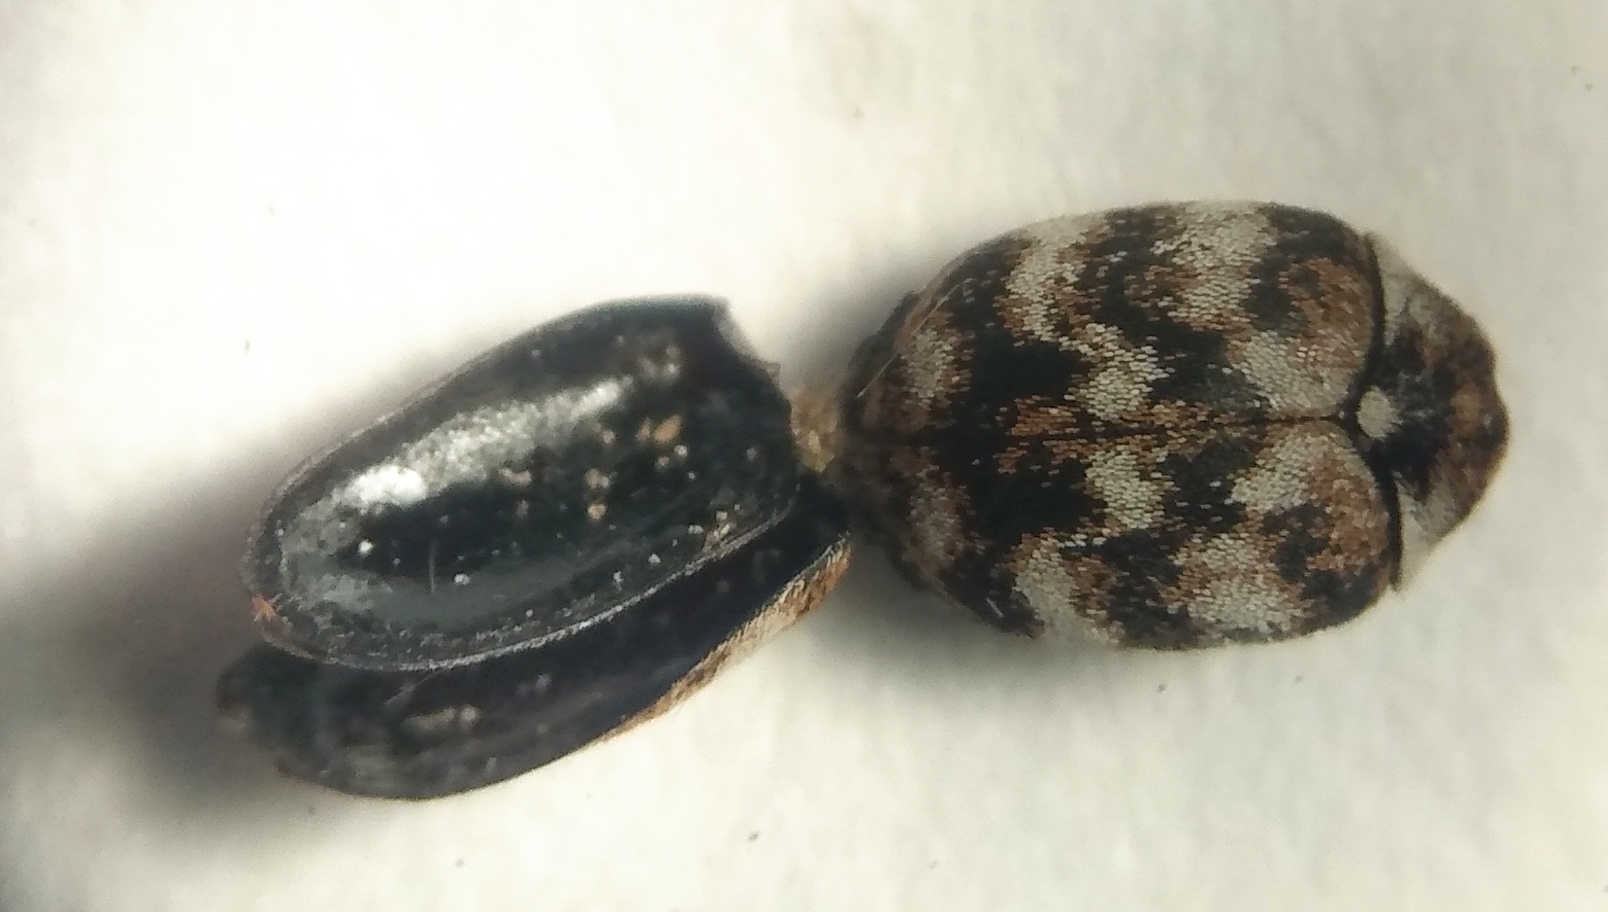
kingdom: Animalia
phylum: Arthropoda
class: Insecta
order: Coleoptera
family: Dermestidae
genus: Anthrenus
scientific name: Anthrenus verbasci
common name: Varied carpet beetle
